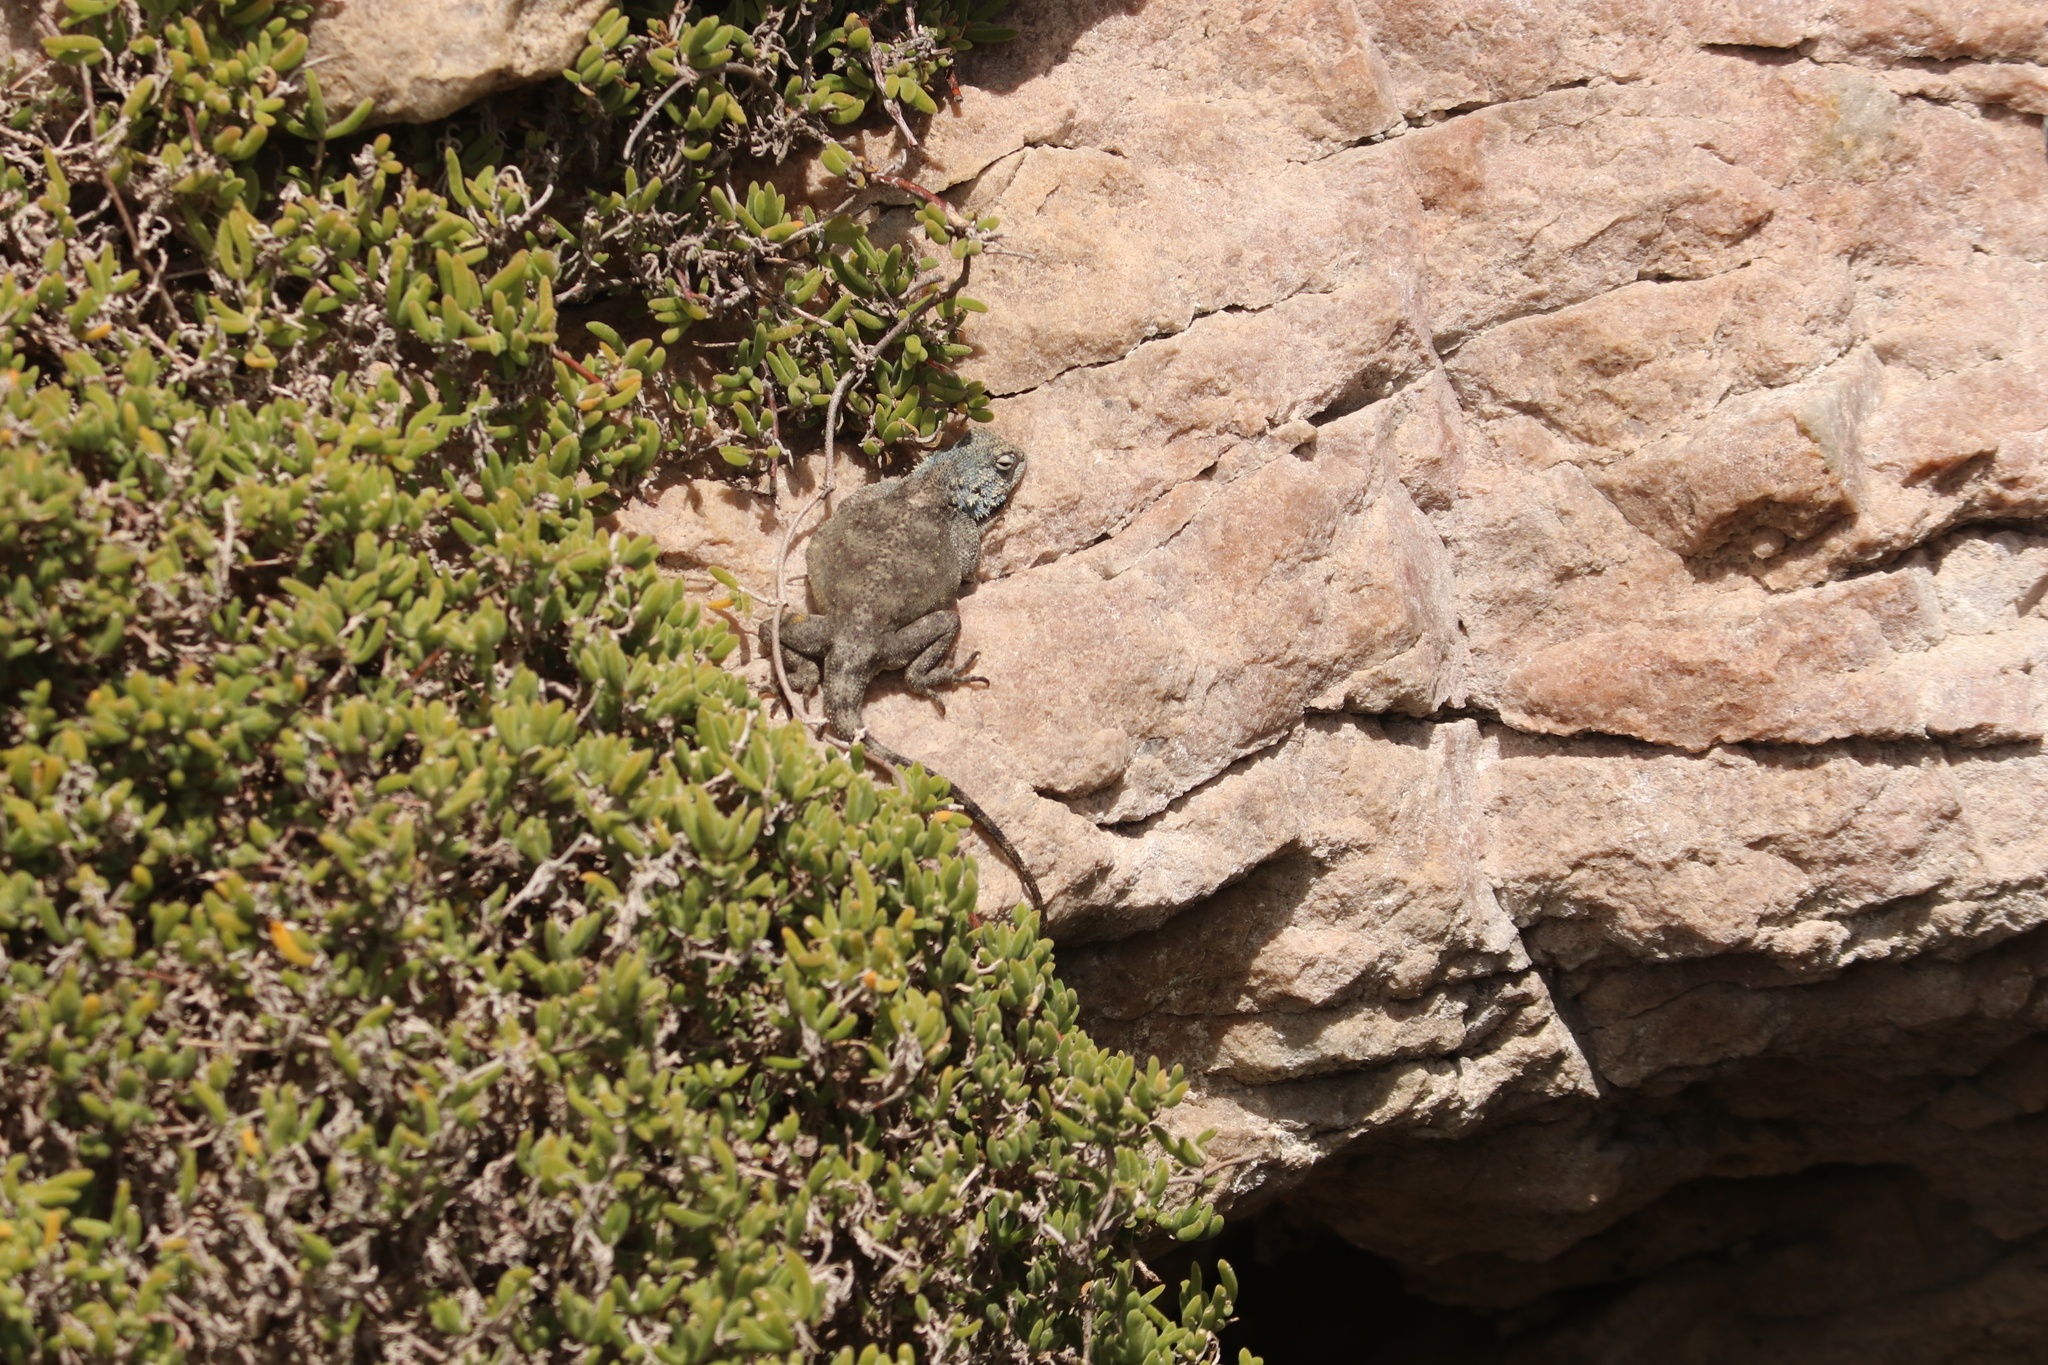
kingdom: Animalia
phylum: Chordata
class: Squamata
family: Agamidae
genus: Agama
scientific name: Agama atra
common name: Southern african rock agama
